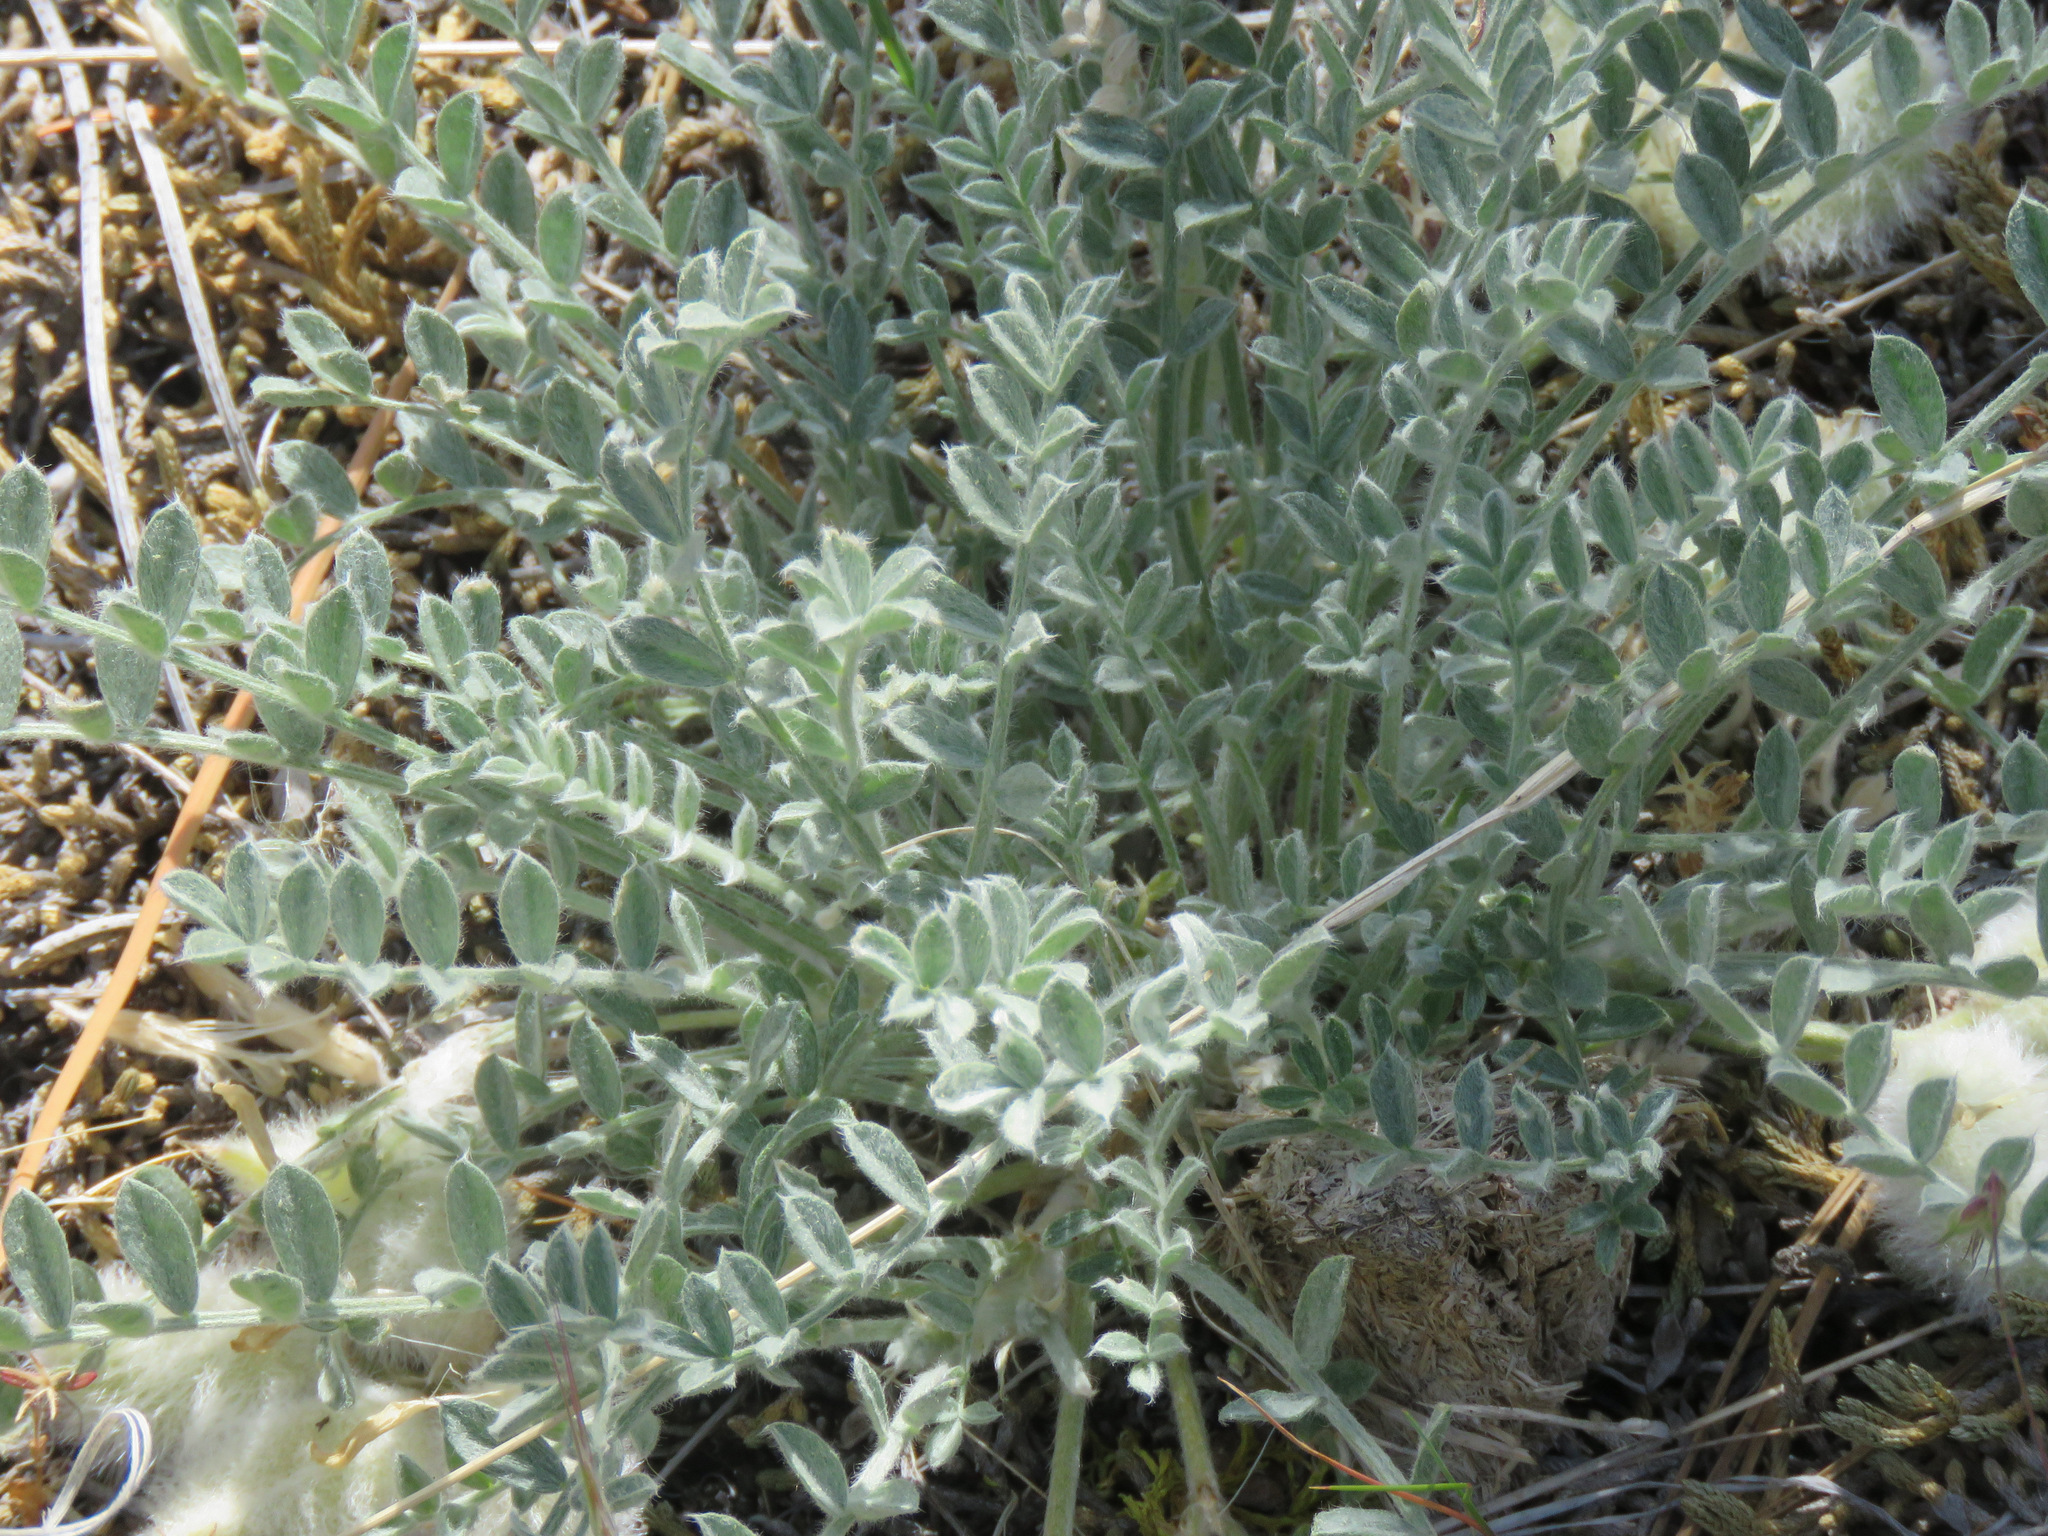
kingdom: Plantae
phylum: Tracheophyta
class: Magnoliopsida
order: Fabales
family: Fabaceae
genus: Astragalus
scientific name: Astragalus purshii
